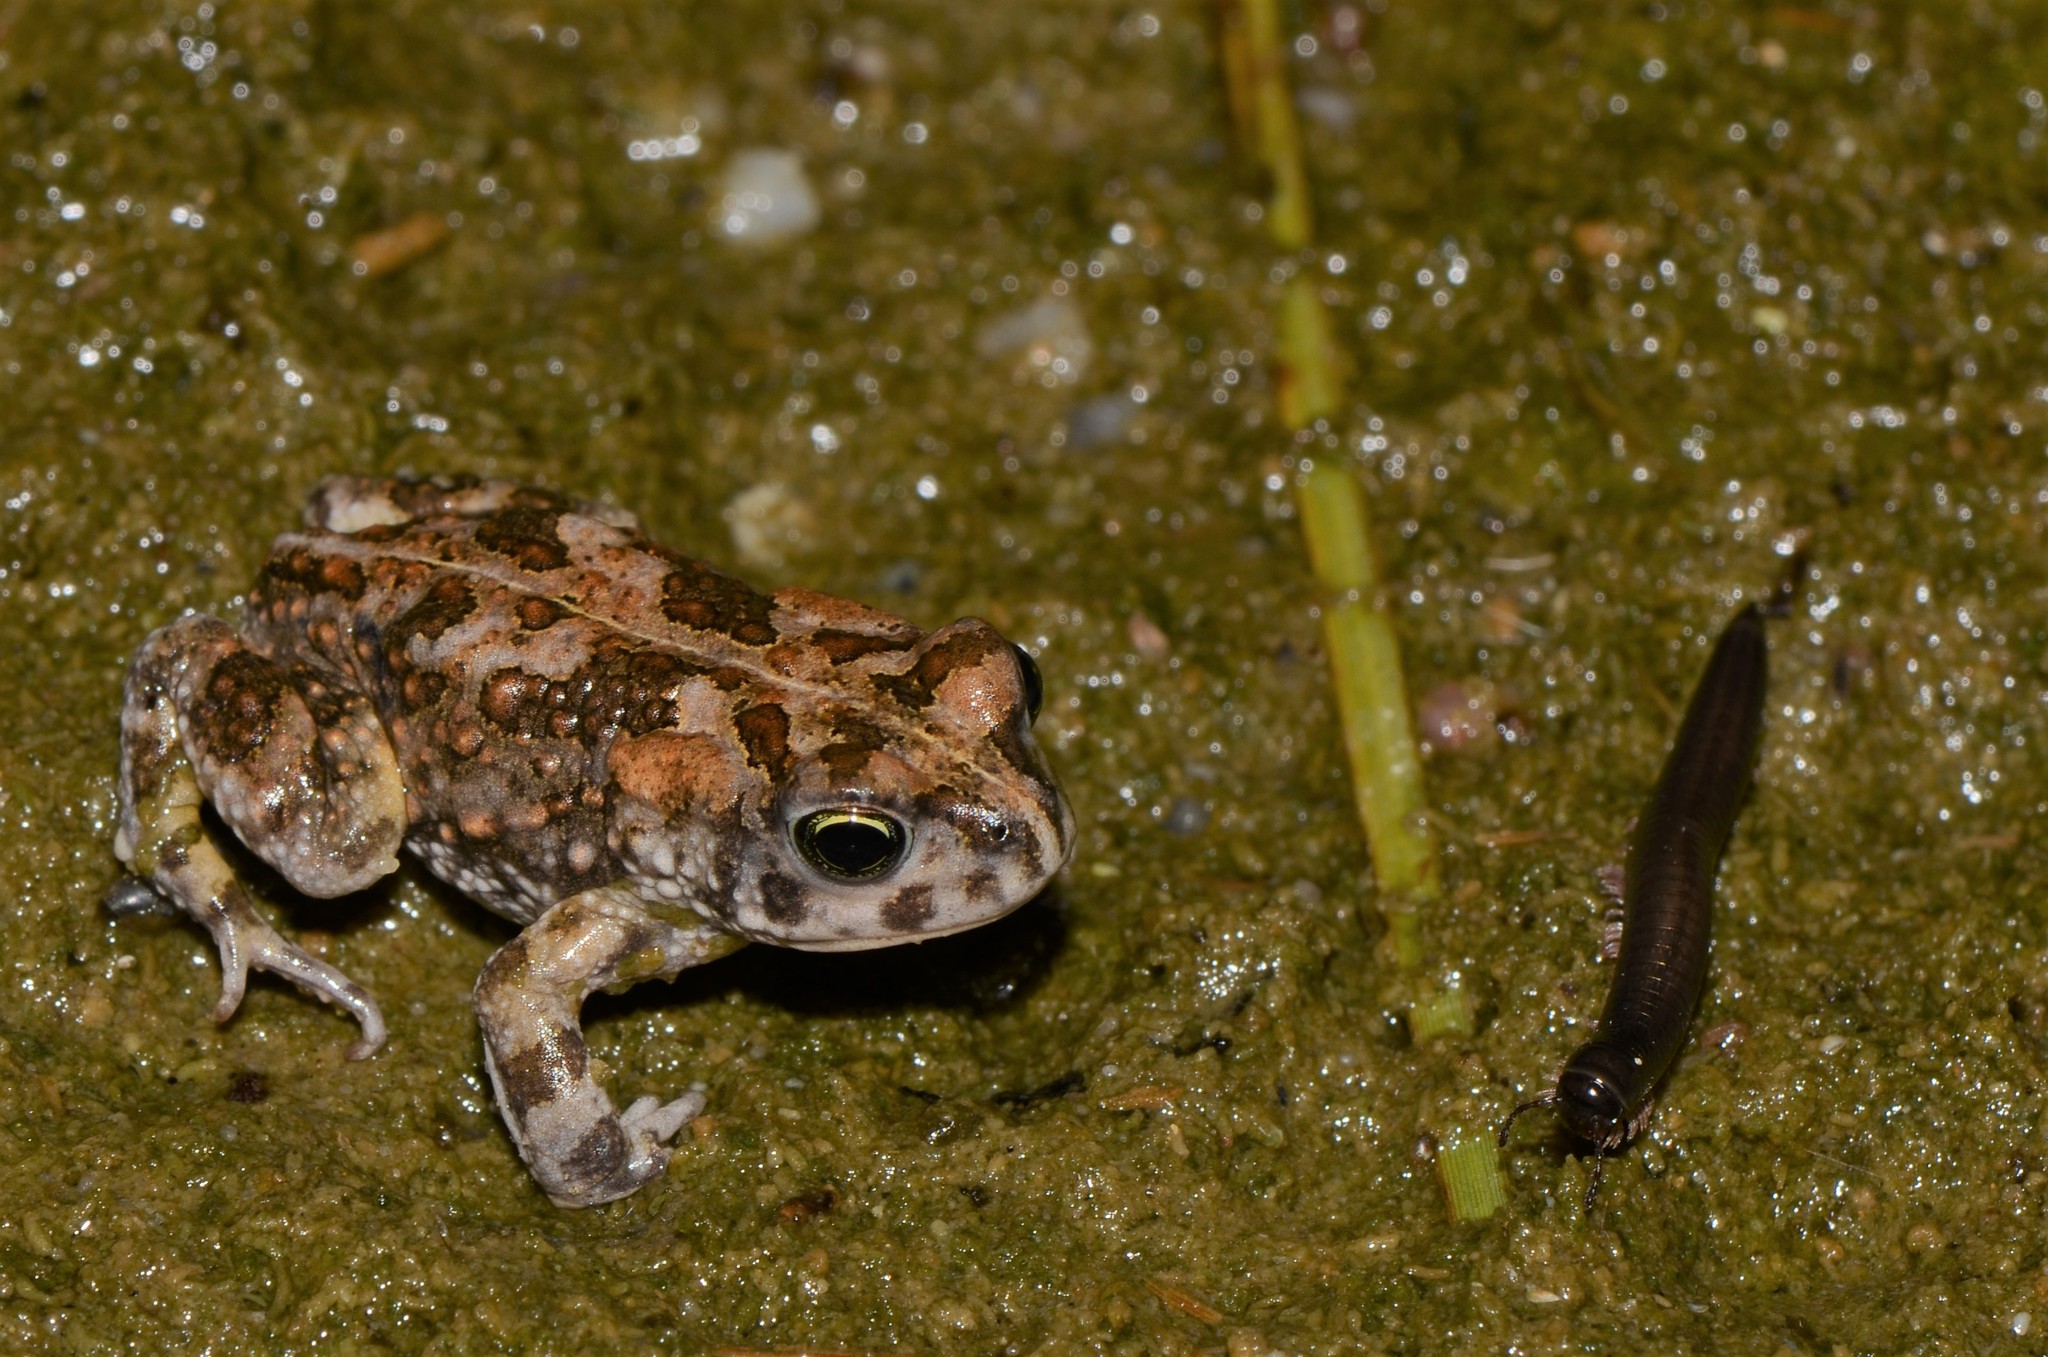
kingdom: Animalia
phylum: Chordata
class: Amphibia
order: Anura
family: Bufonidae
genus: Vandijkophrynus
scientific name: Vandijkophrynus angusticeps
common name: Sand toad
